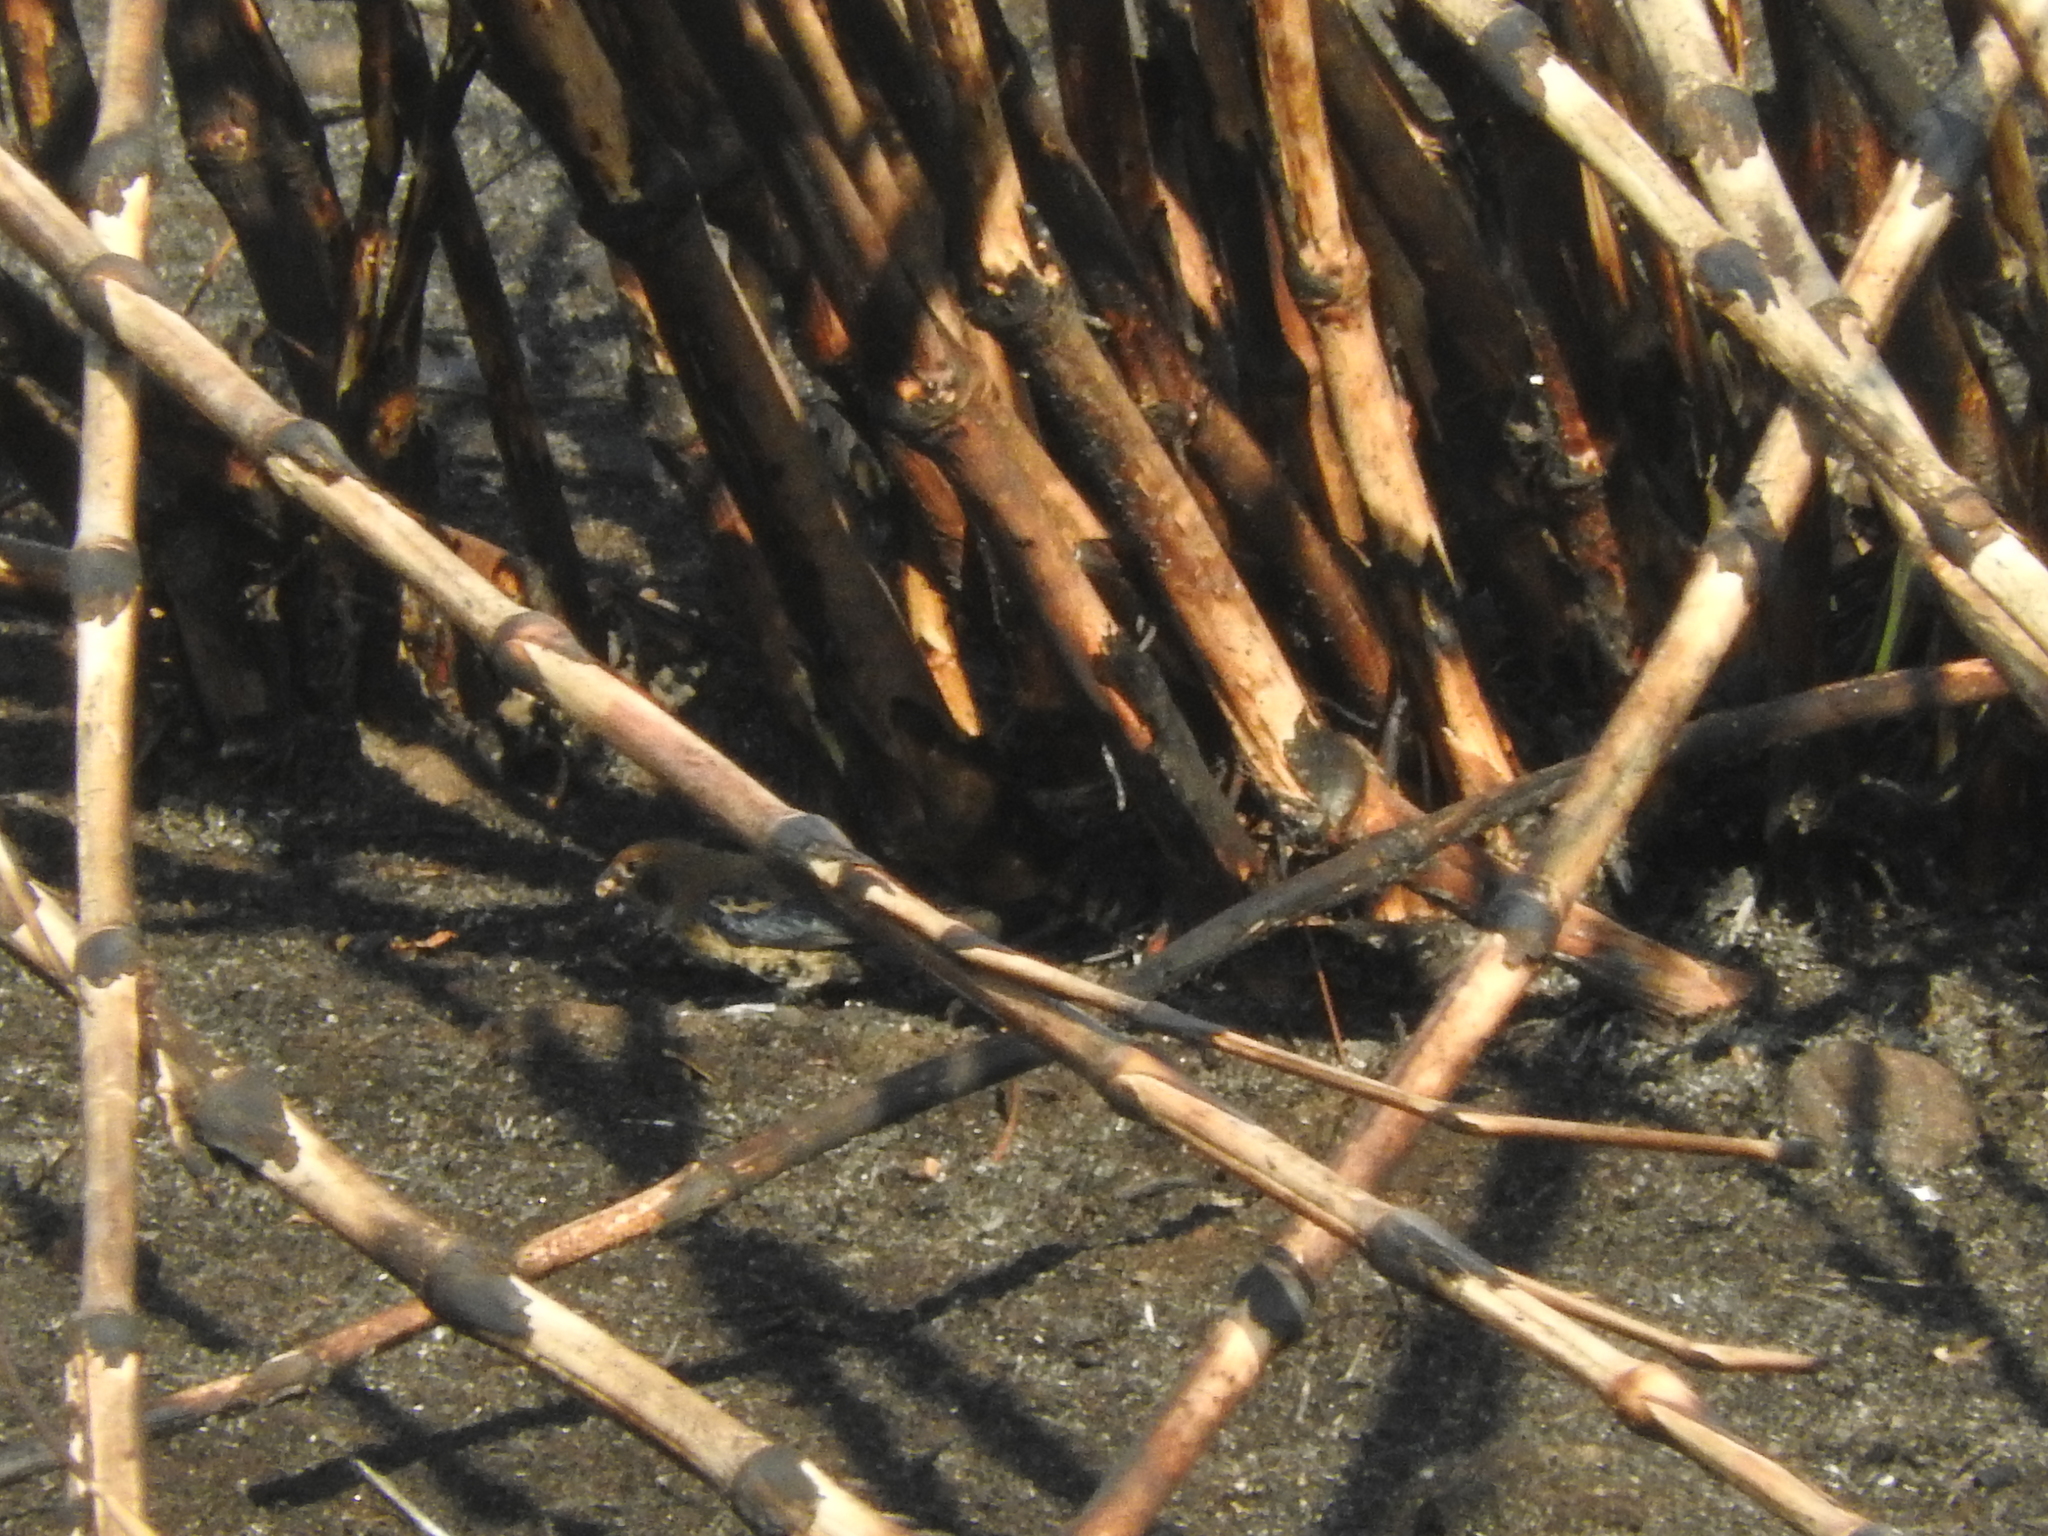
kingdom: Animalia
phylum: Chordata
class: Aves
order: Passeriformes
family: Thraupidae
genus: Volatinia
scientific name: Volatinia jacarina
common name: Blue-black grassquit
